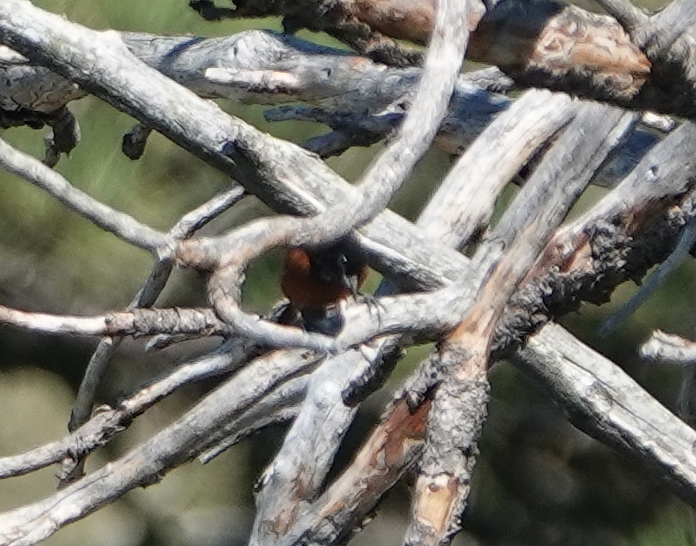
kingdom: Animalia
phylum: Chordata
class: Aves
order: Passeriformes
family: Icteridae
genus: Icterus
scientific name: Icterus spurius
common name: Orchard oriole
